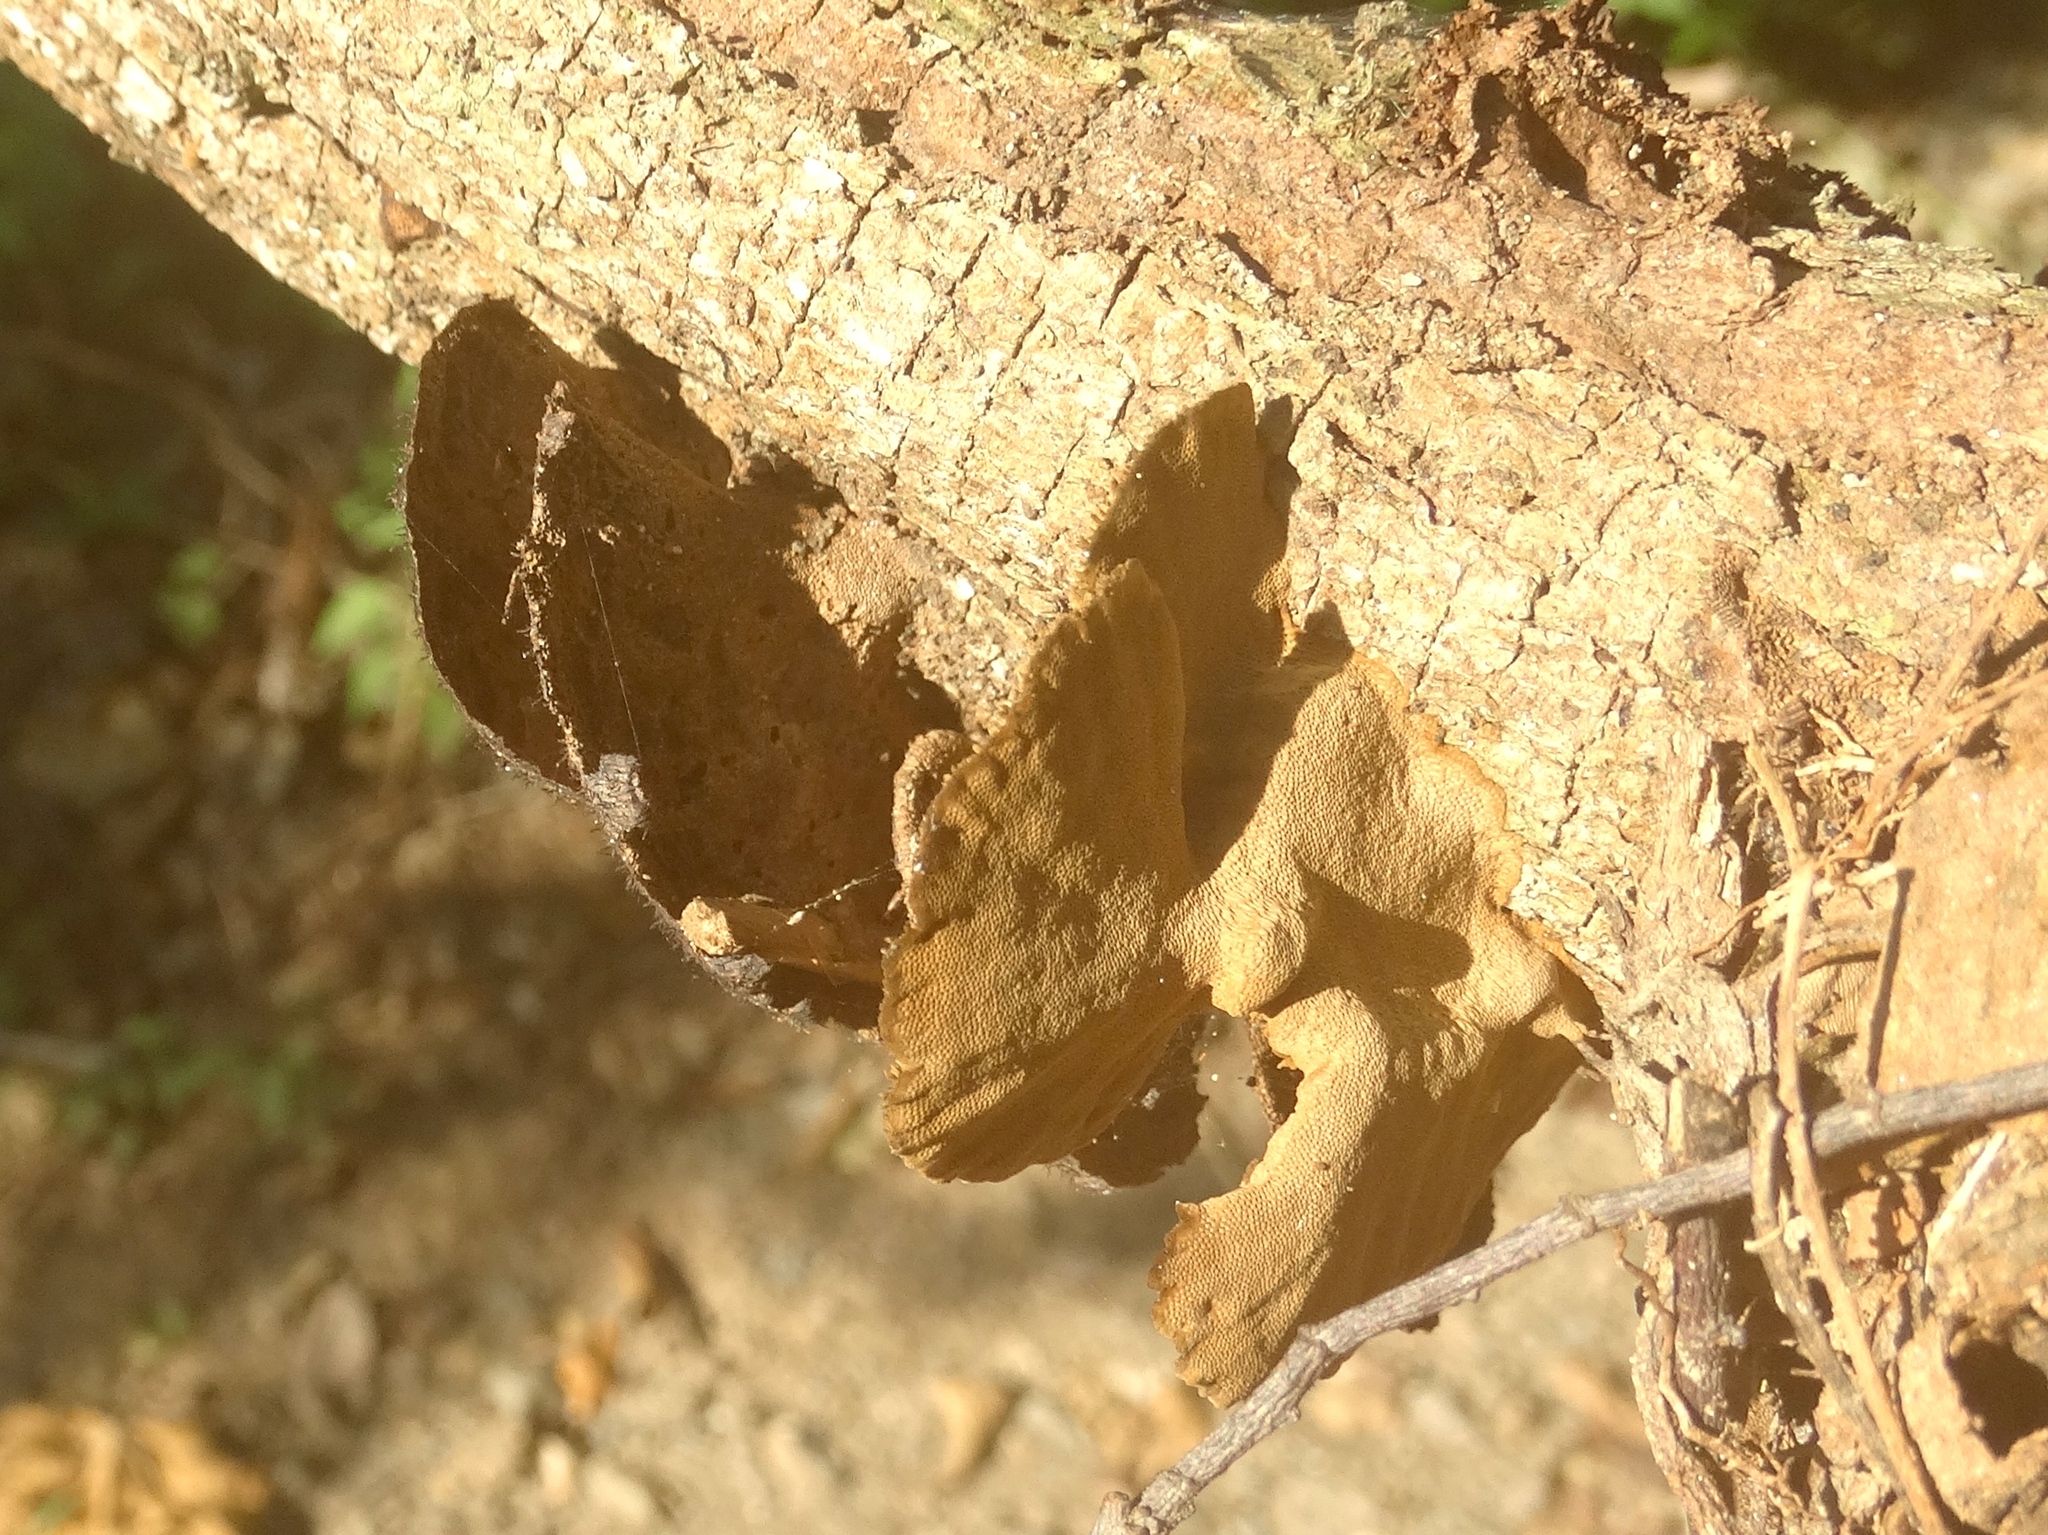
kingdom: Fungi
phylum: Basidiomycota
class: Agaricomycetes
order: Polyporales
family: Cerrenaceae
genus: Cerrena
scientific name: Cerrena hydnoides
